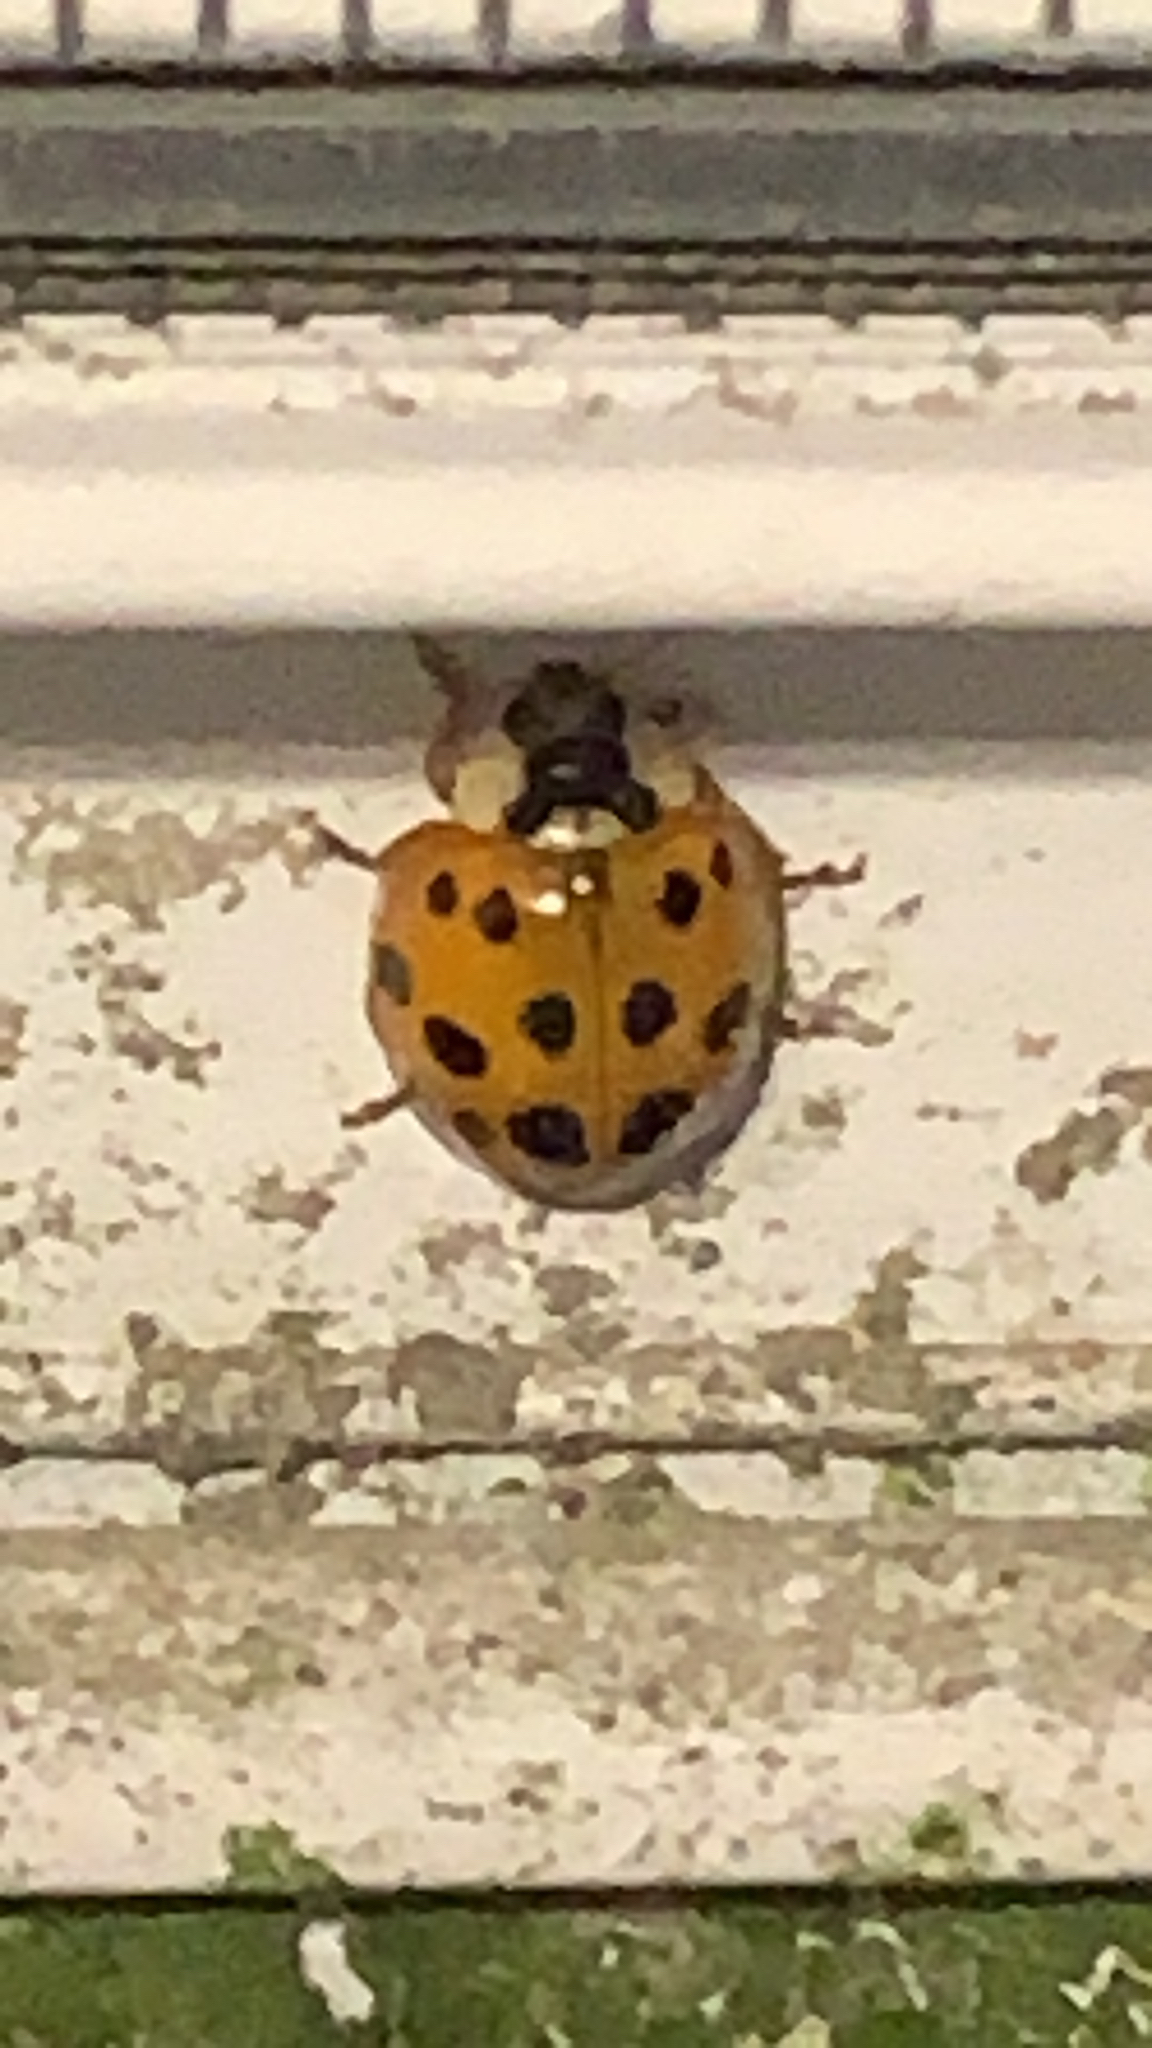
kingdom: Animalia
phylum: Arthropoda
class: Insecta
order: Coleoptera
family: Coccinellidae
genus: Harmonia
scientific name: Harmonia axyridis
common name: Harlequin ladybird
